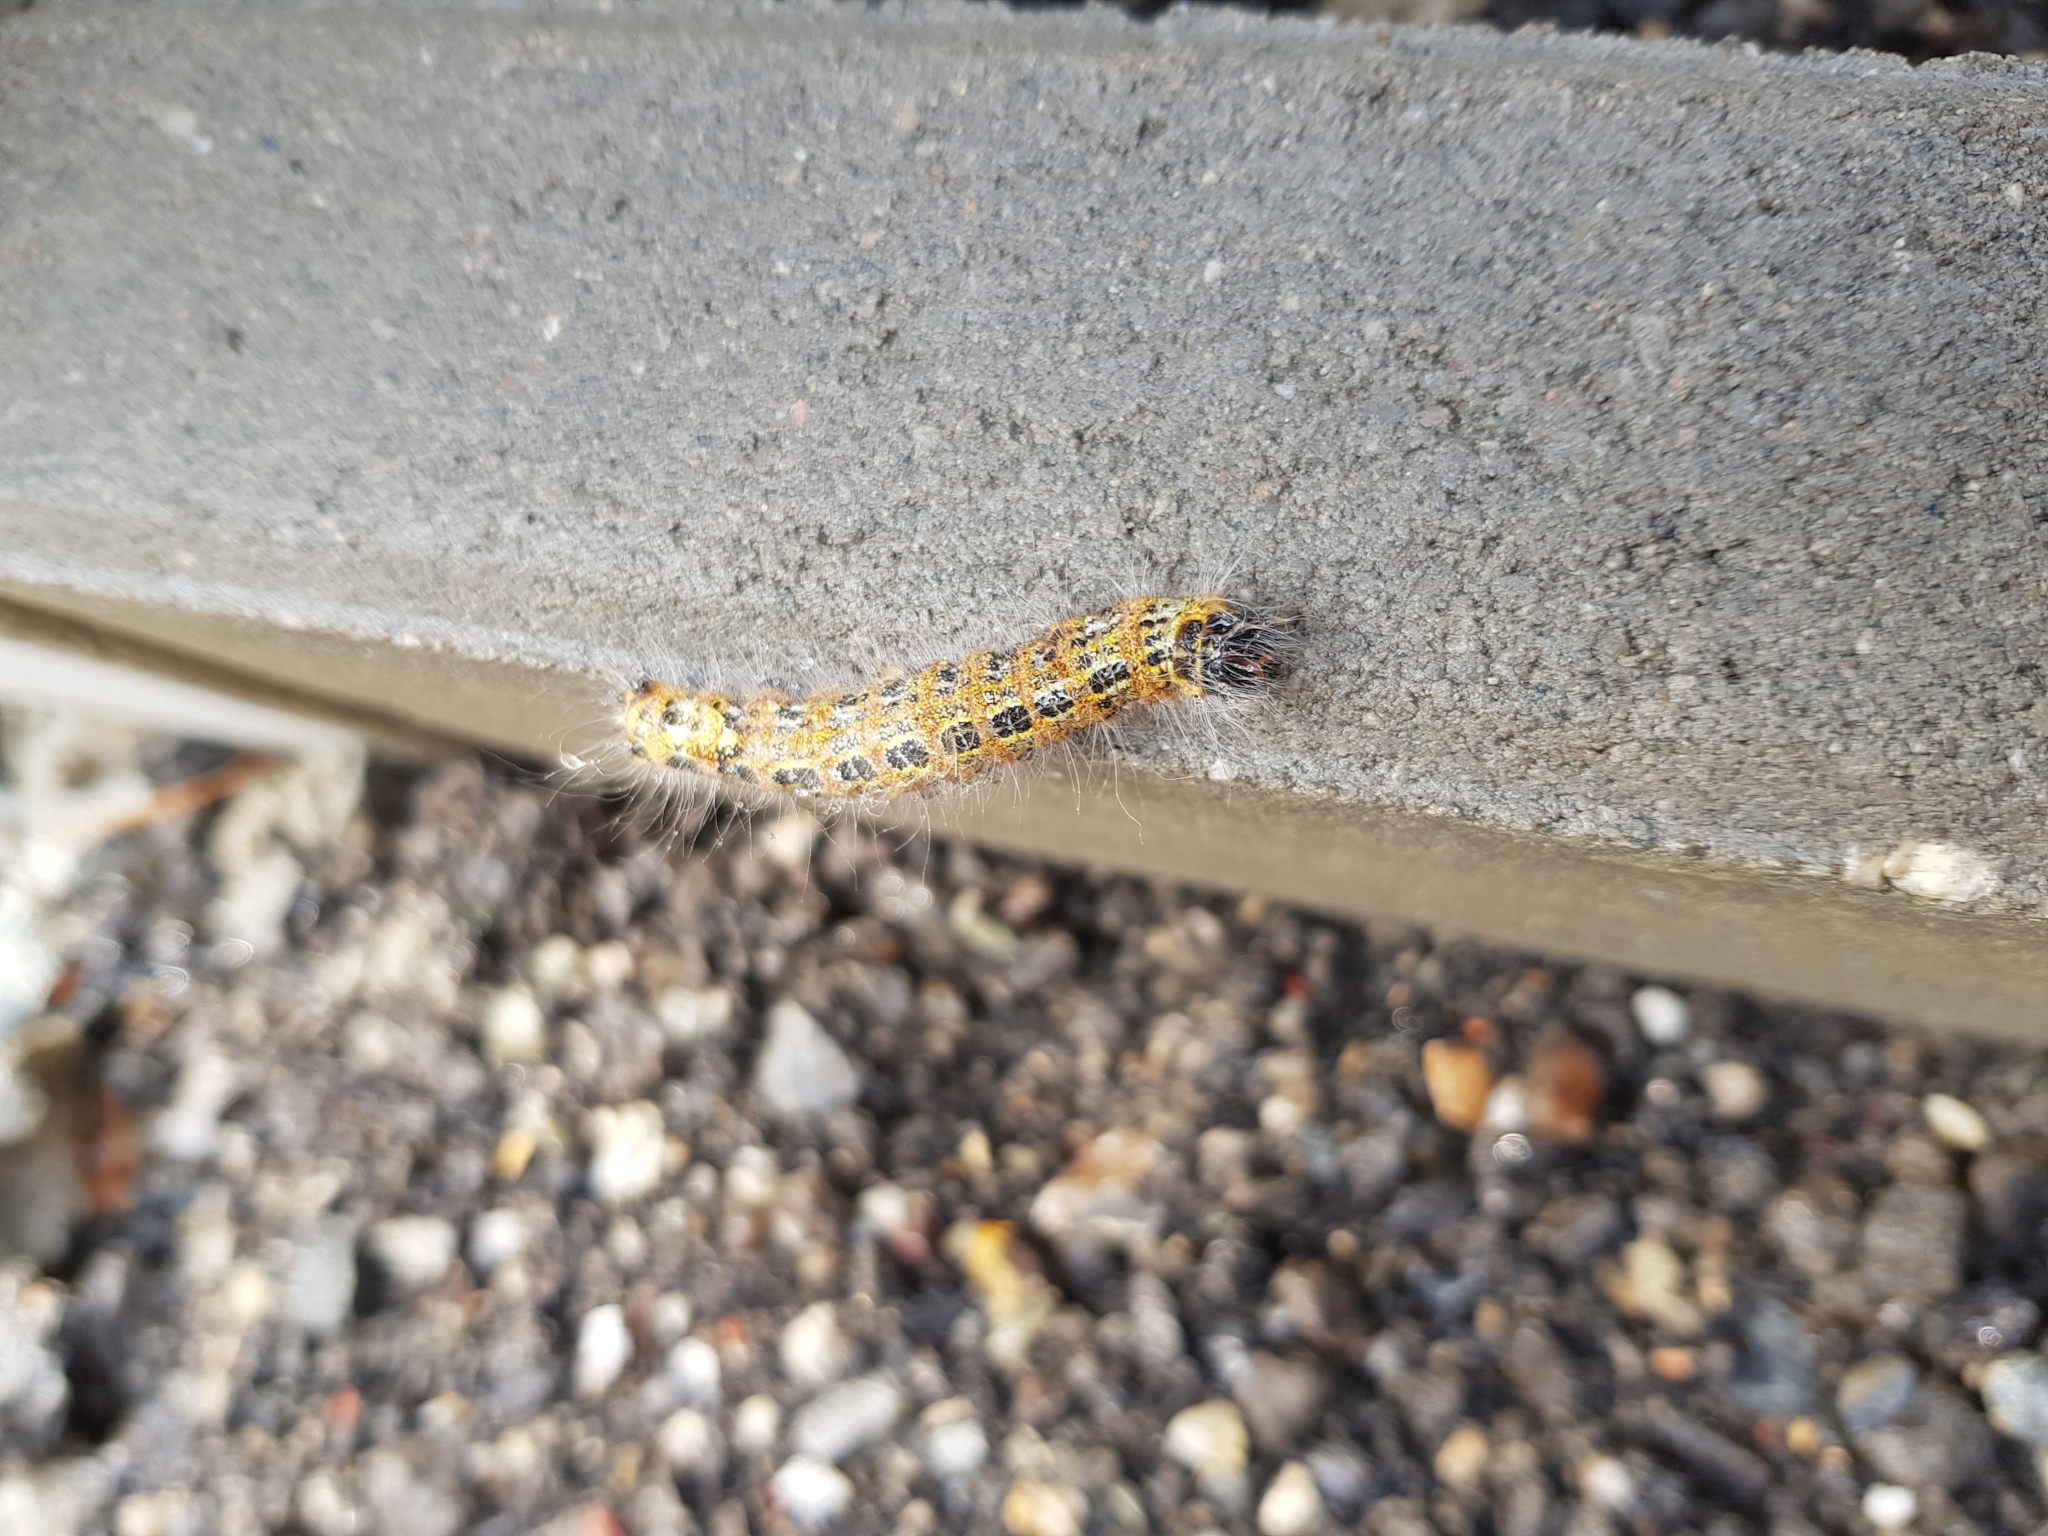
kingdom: Animalia
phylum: Arthropoda
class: Insecta
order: Lepidoptera
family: Notodontidae
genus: Phalera
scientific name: Phalera bucephala
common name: Buff-tip
